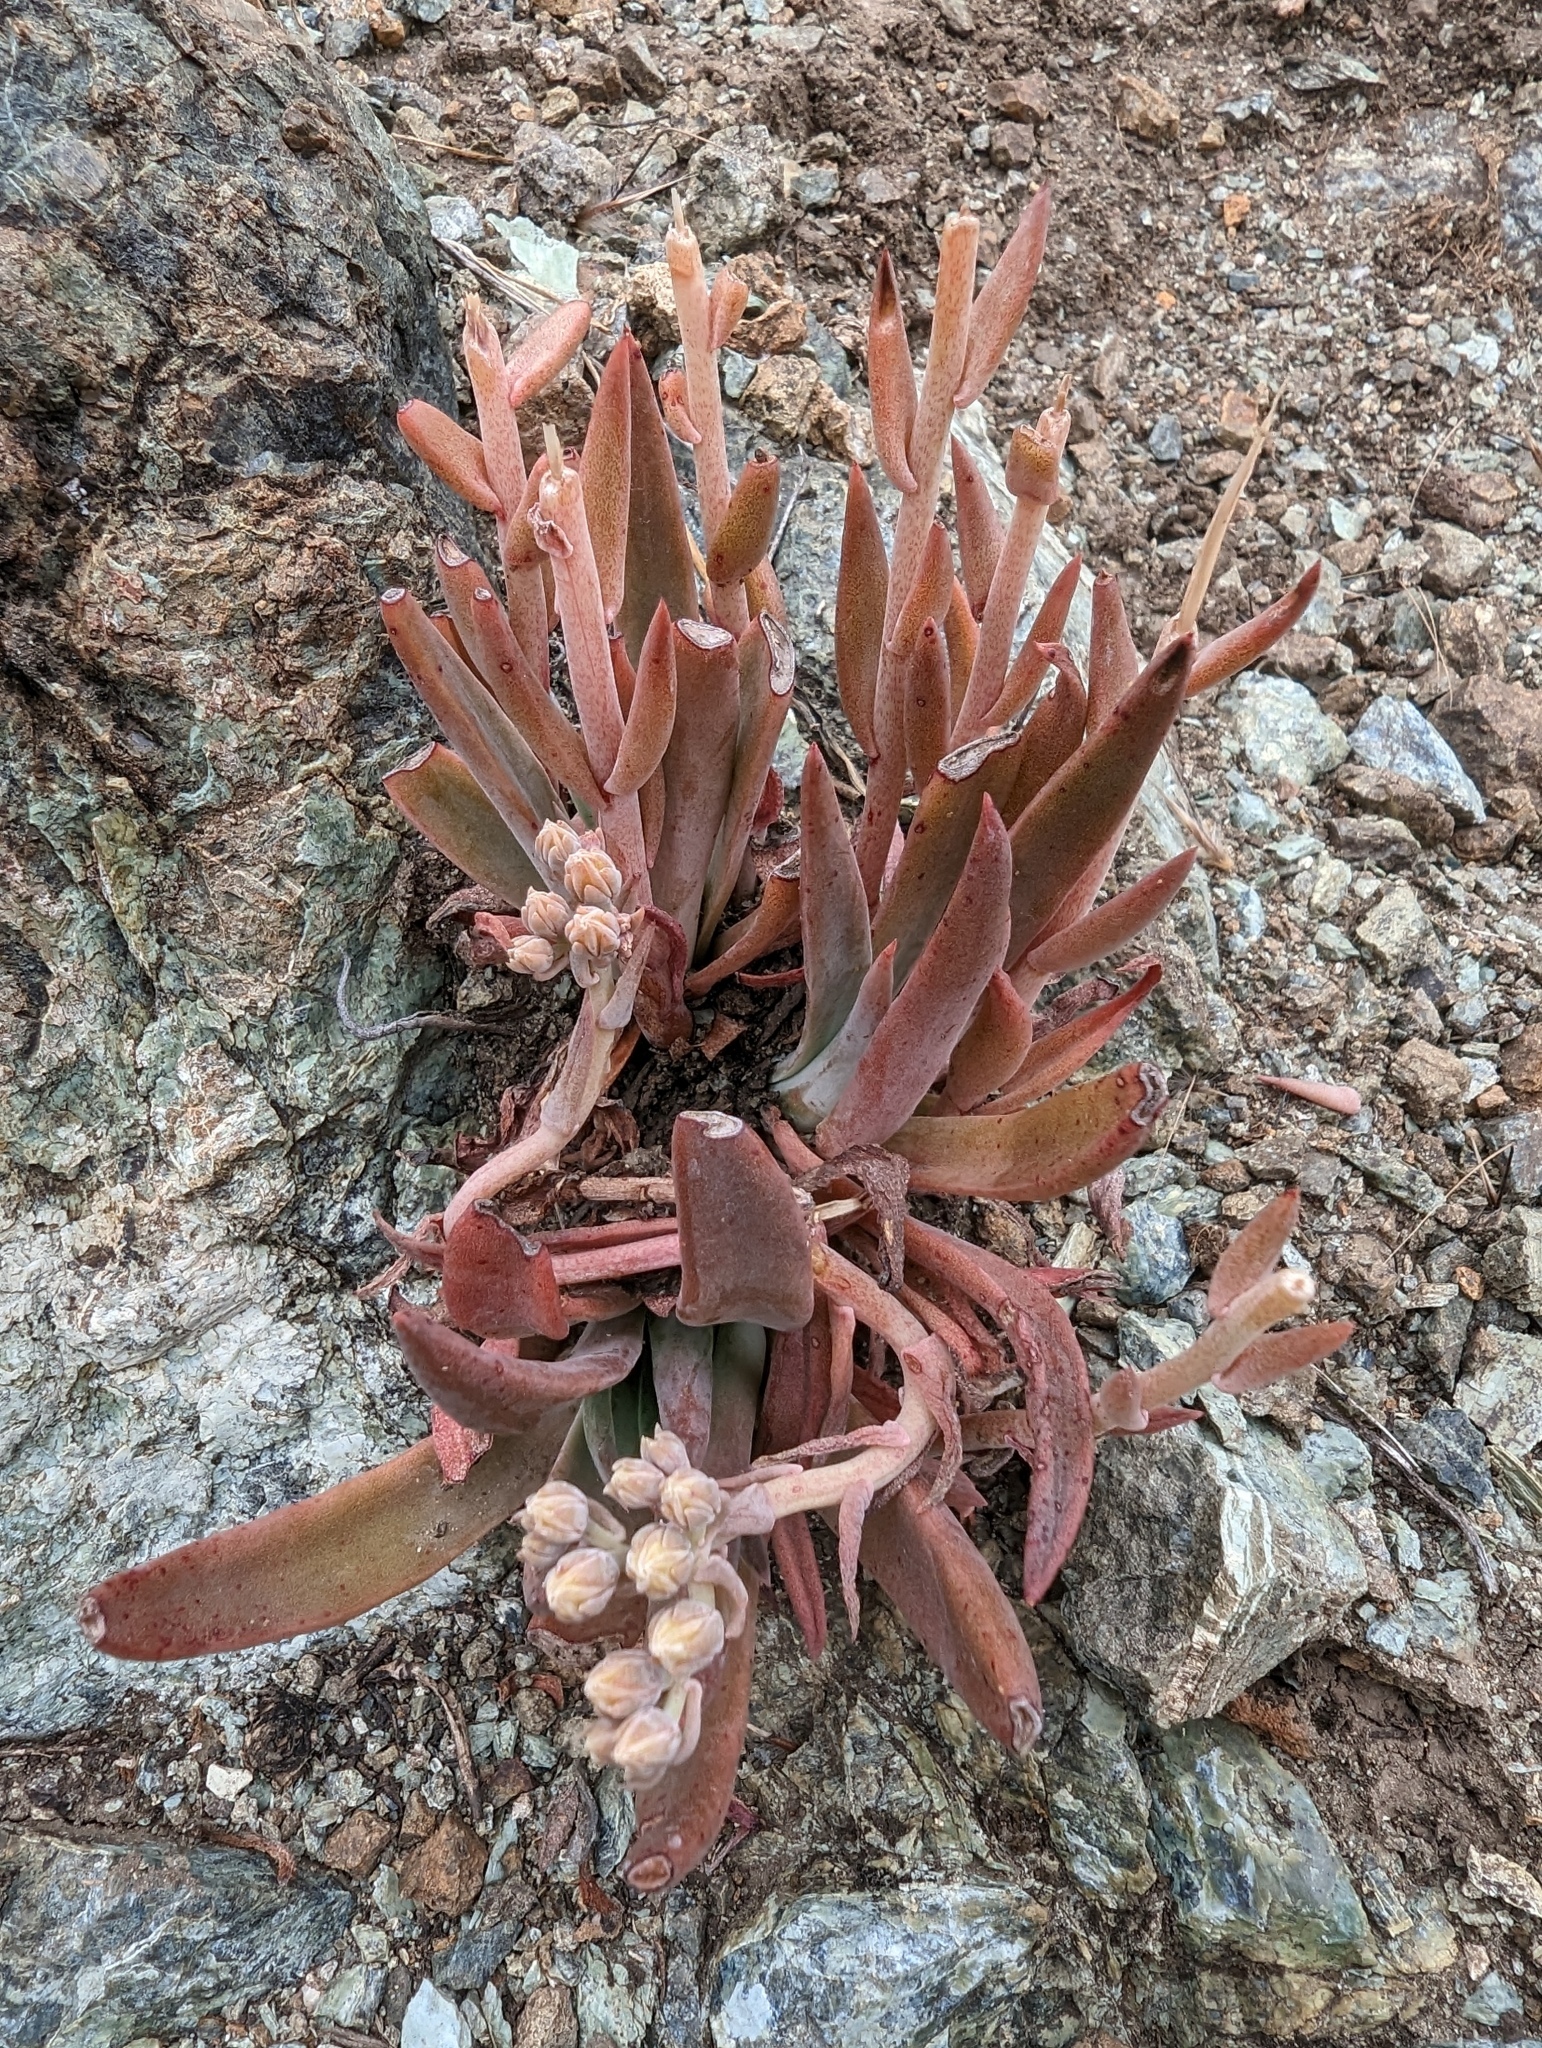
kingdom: Plantae
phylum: Tracheophyta
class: Magnoliopsida
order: Saxifragales
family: Crassulaceae
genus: Dudleya
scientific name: Dudleya abramsii
